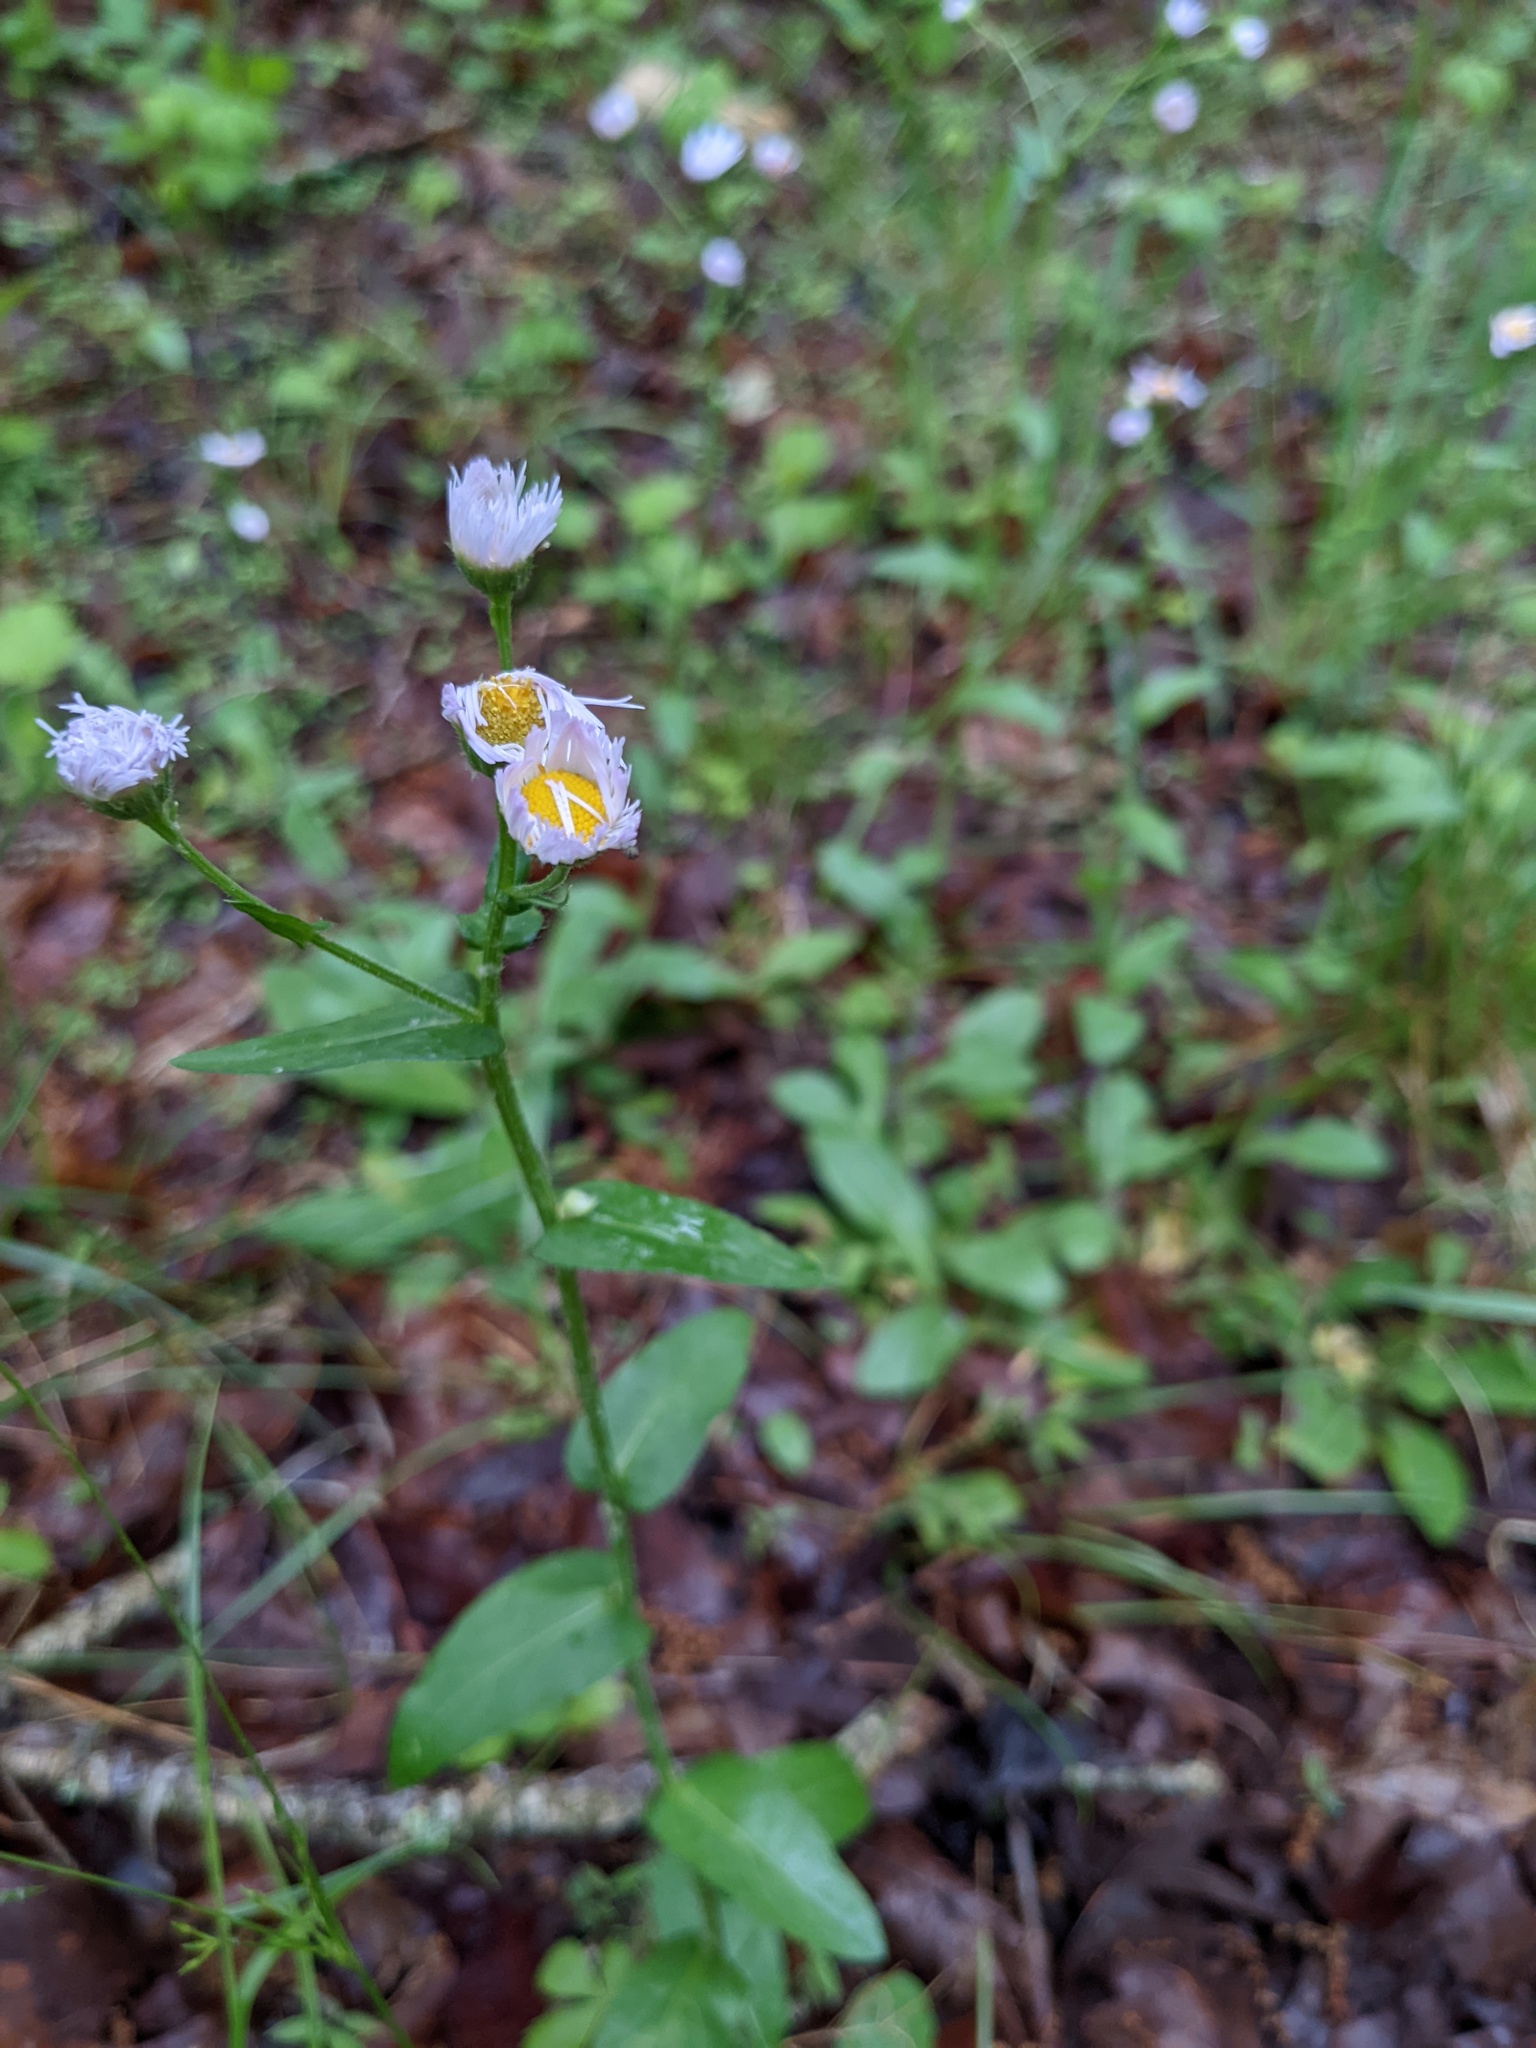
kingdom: Plantae
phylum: Tracheophyta
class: Magnoliopsida
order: Asterales
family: Asteraceae
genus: Erigeron
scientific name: Erigeron philadelphicus
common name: Robin's-plantain
